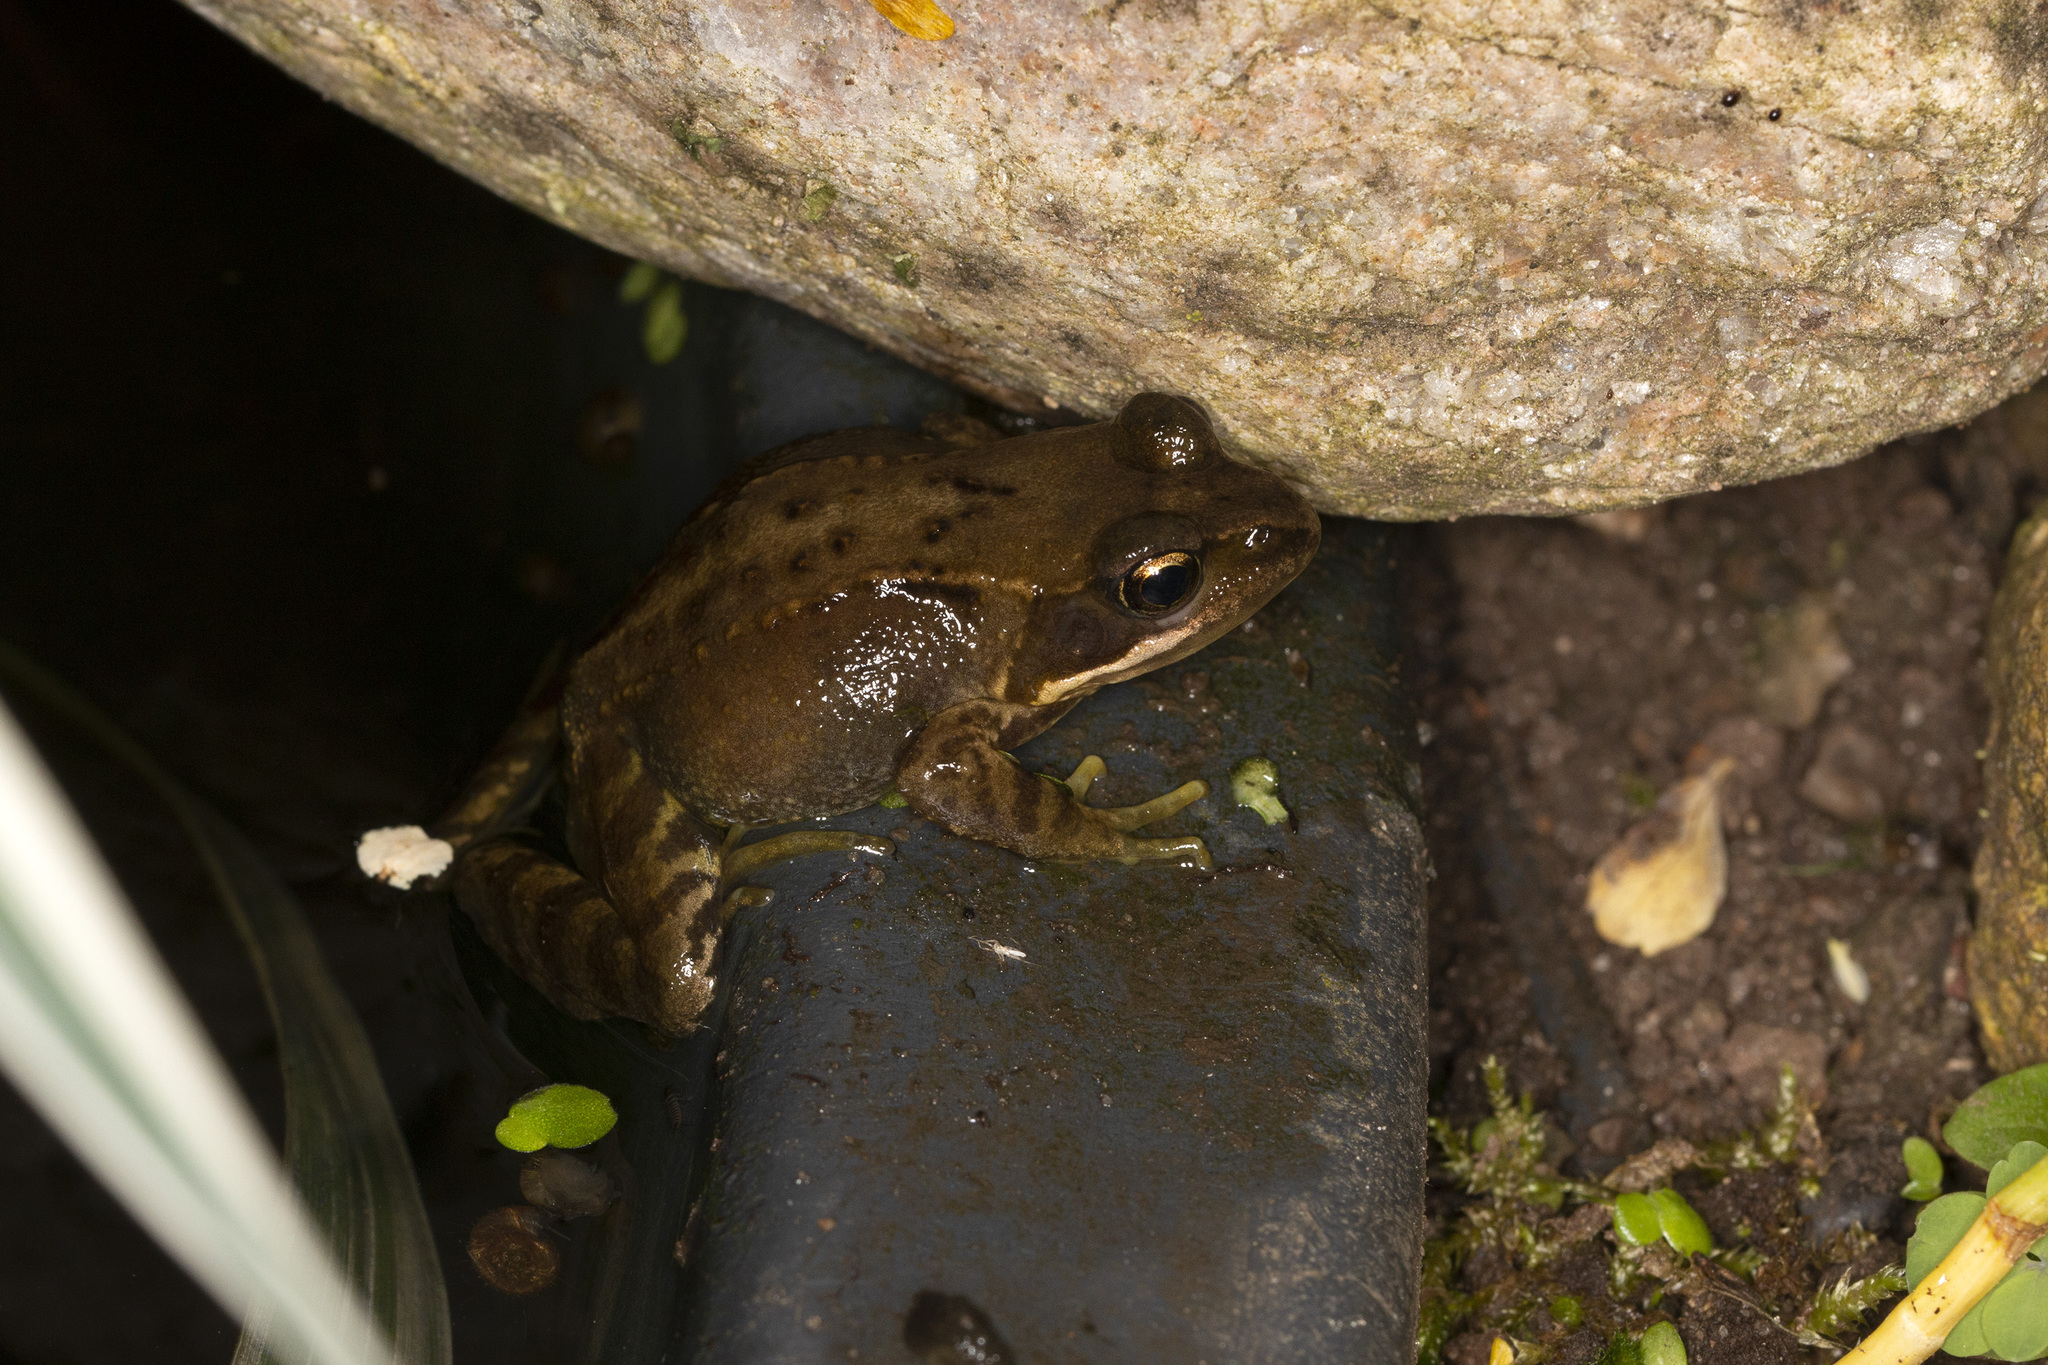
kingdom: Animalia
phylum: Chordata
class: Amphibia
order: Anura
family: Ranidae
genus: Rana
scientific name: Rana temporaria
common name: Common frog
